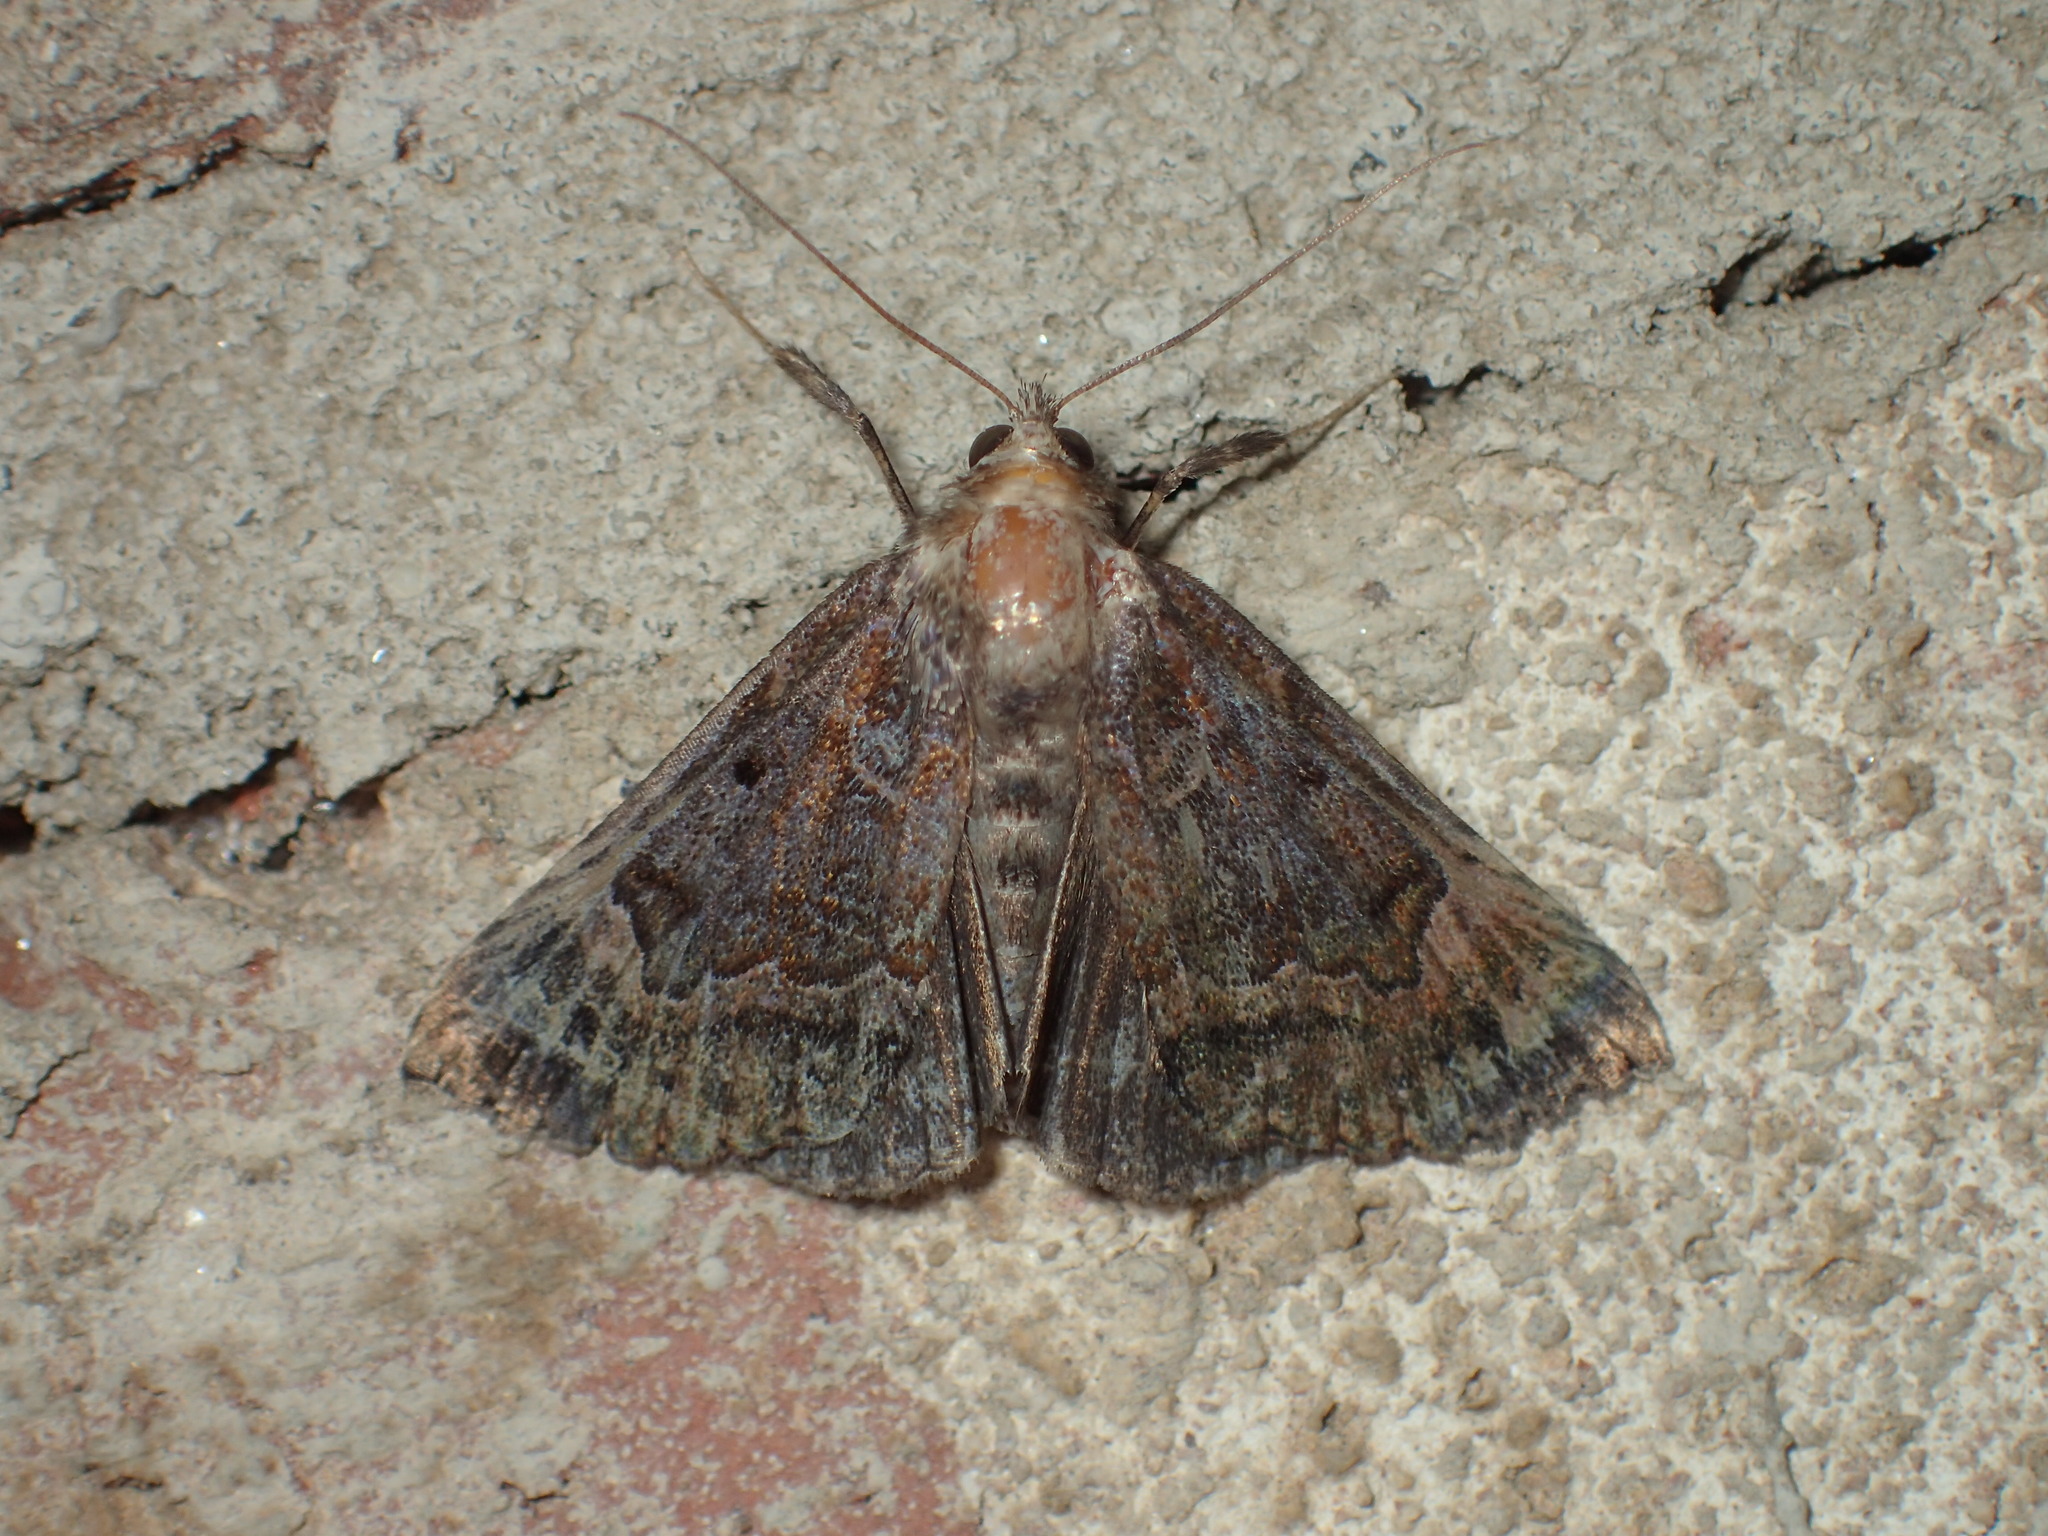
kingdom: Animalia
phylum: Arthropoda
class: Insecta
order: Lepidoptera
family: Erebidae
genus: Hypena
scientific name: Hypena palparia
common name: Mottled bomolocha moth
